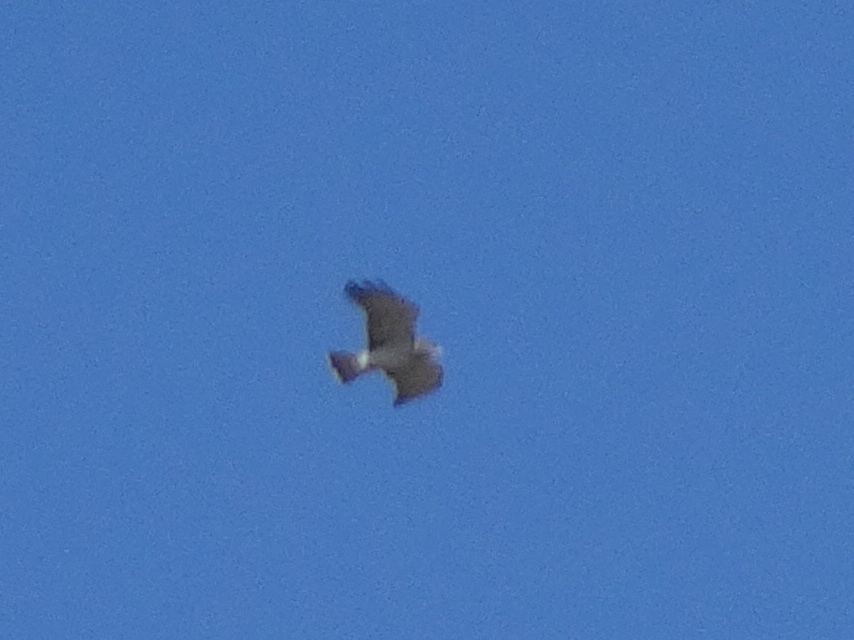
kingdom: Animalia
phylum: Chordata
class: Aves
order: Accipitriformes
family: Accipitridae
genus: Circaetus
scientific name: Circaetus gallicus
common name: Short-toed snake eagle
